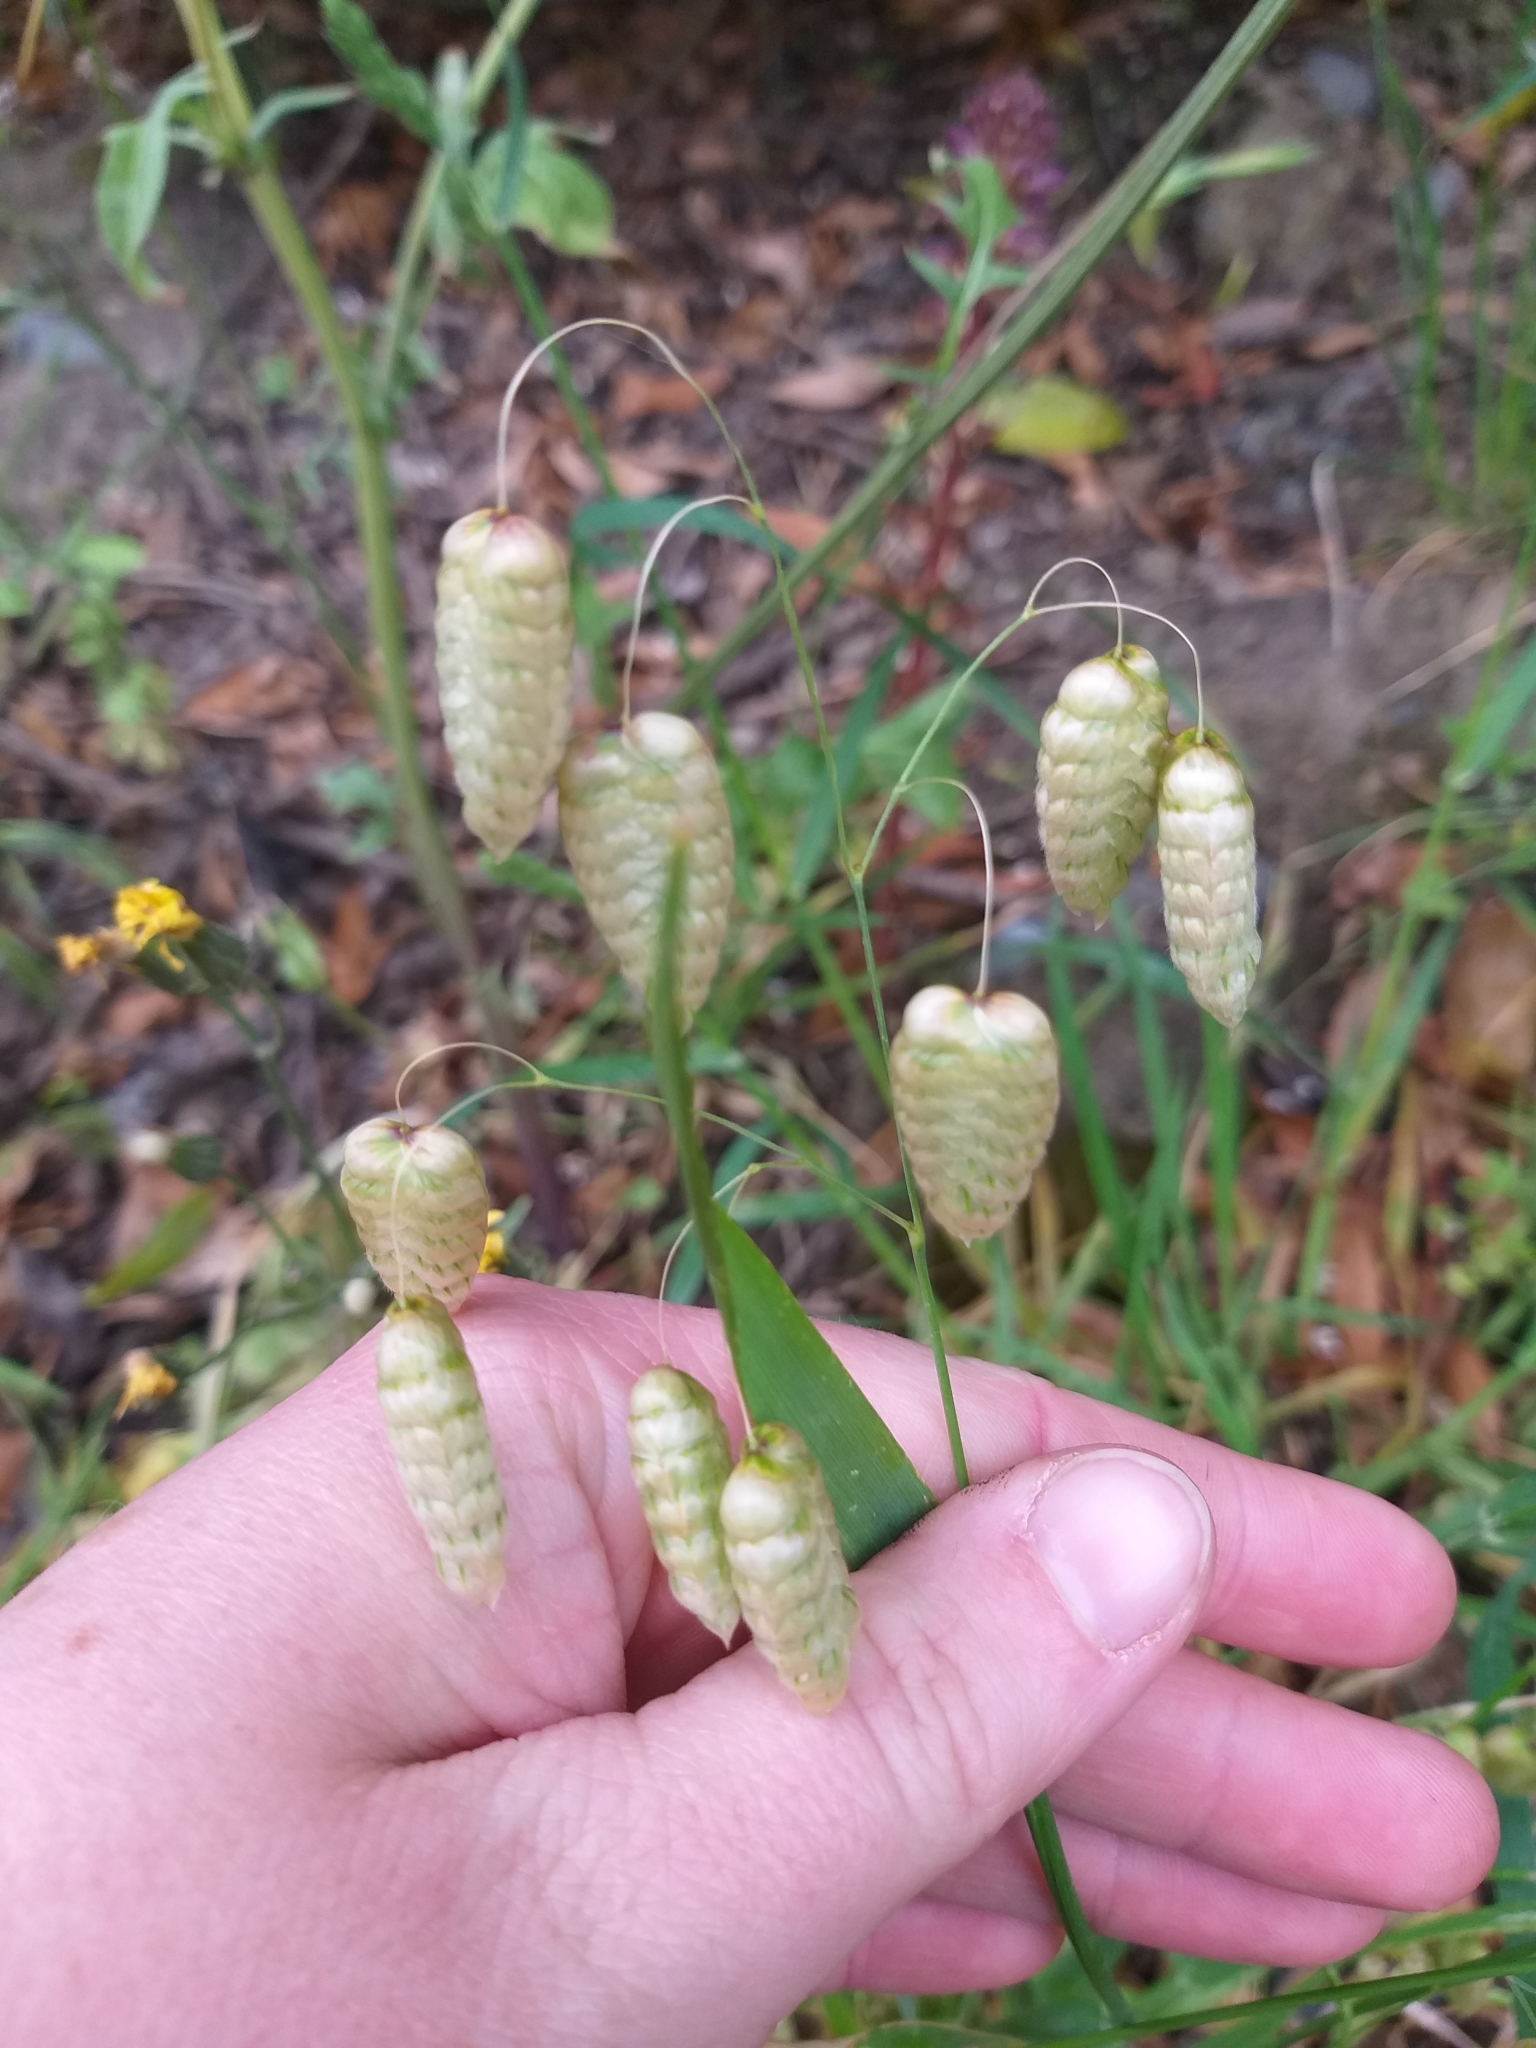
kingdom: Plantae
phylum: Tracheophyta
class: Liliopsida
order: Poales
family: Poaceae
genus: Briza
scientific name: Briza maxima
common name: Big quakinggrass
